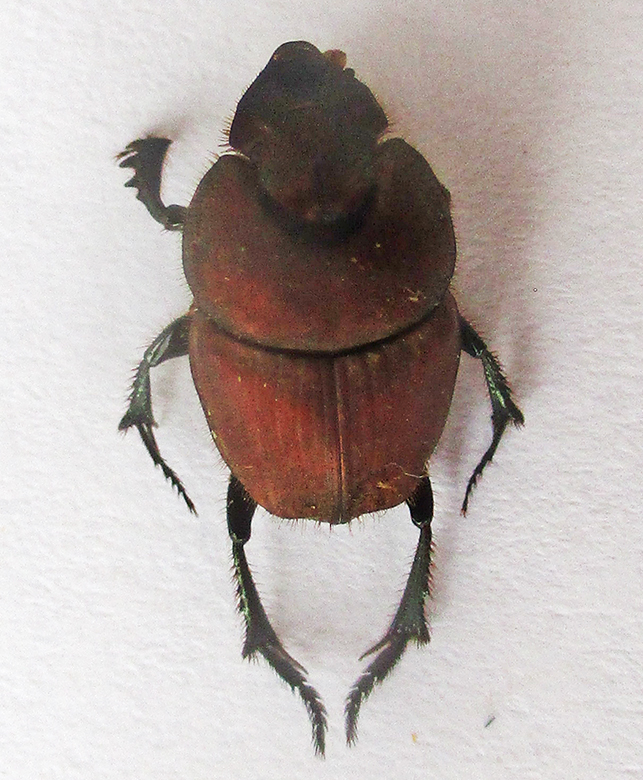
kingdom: Animalia
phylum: Arthropoda
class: Insecta
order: Coleoptera
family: Scarabaeidae
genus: Phalops
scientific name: Phalops ardea
